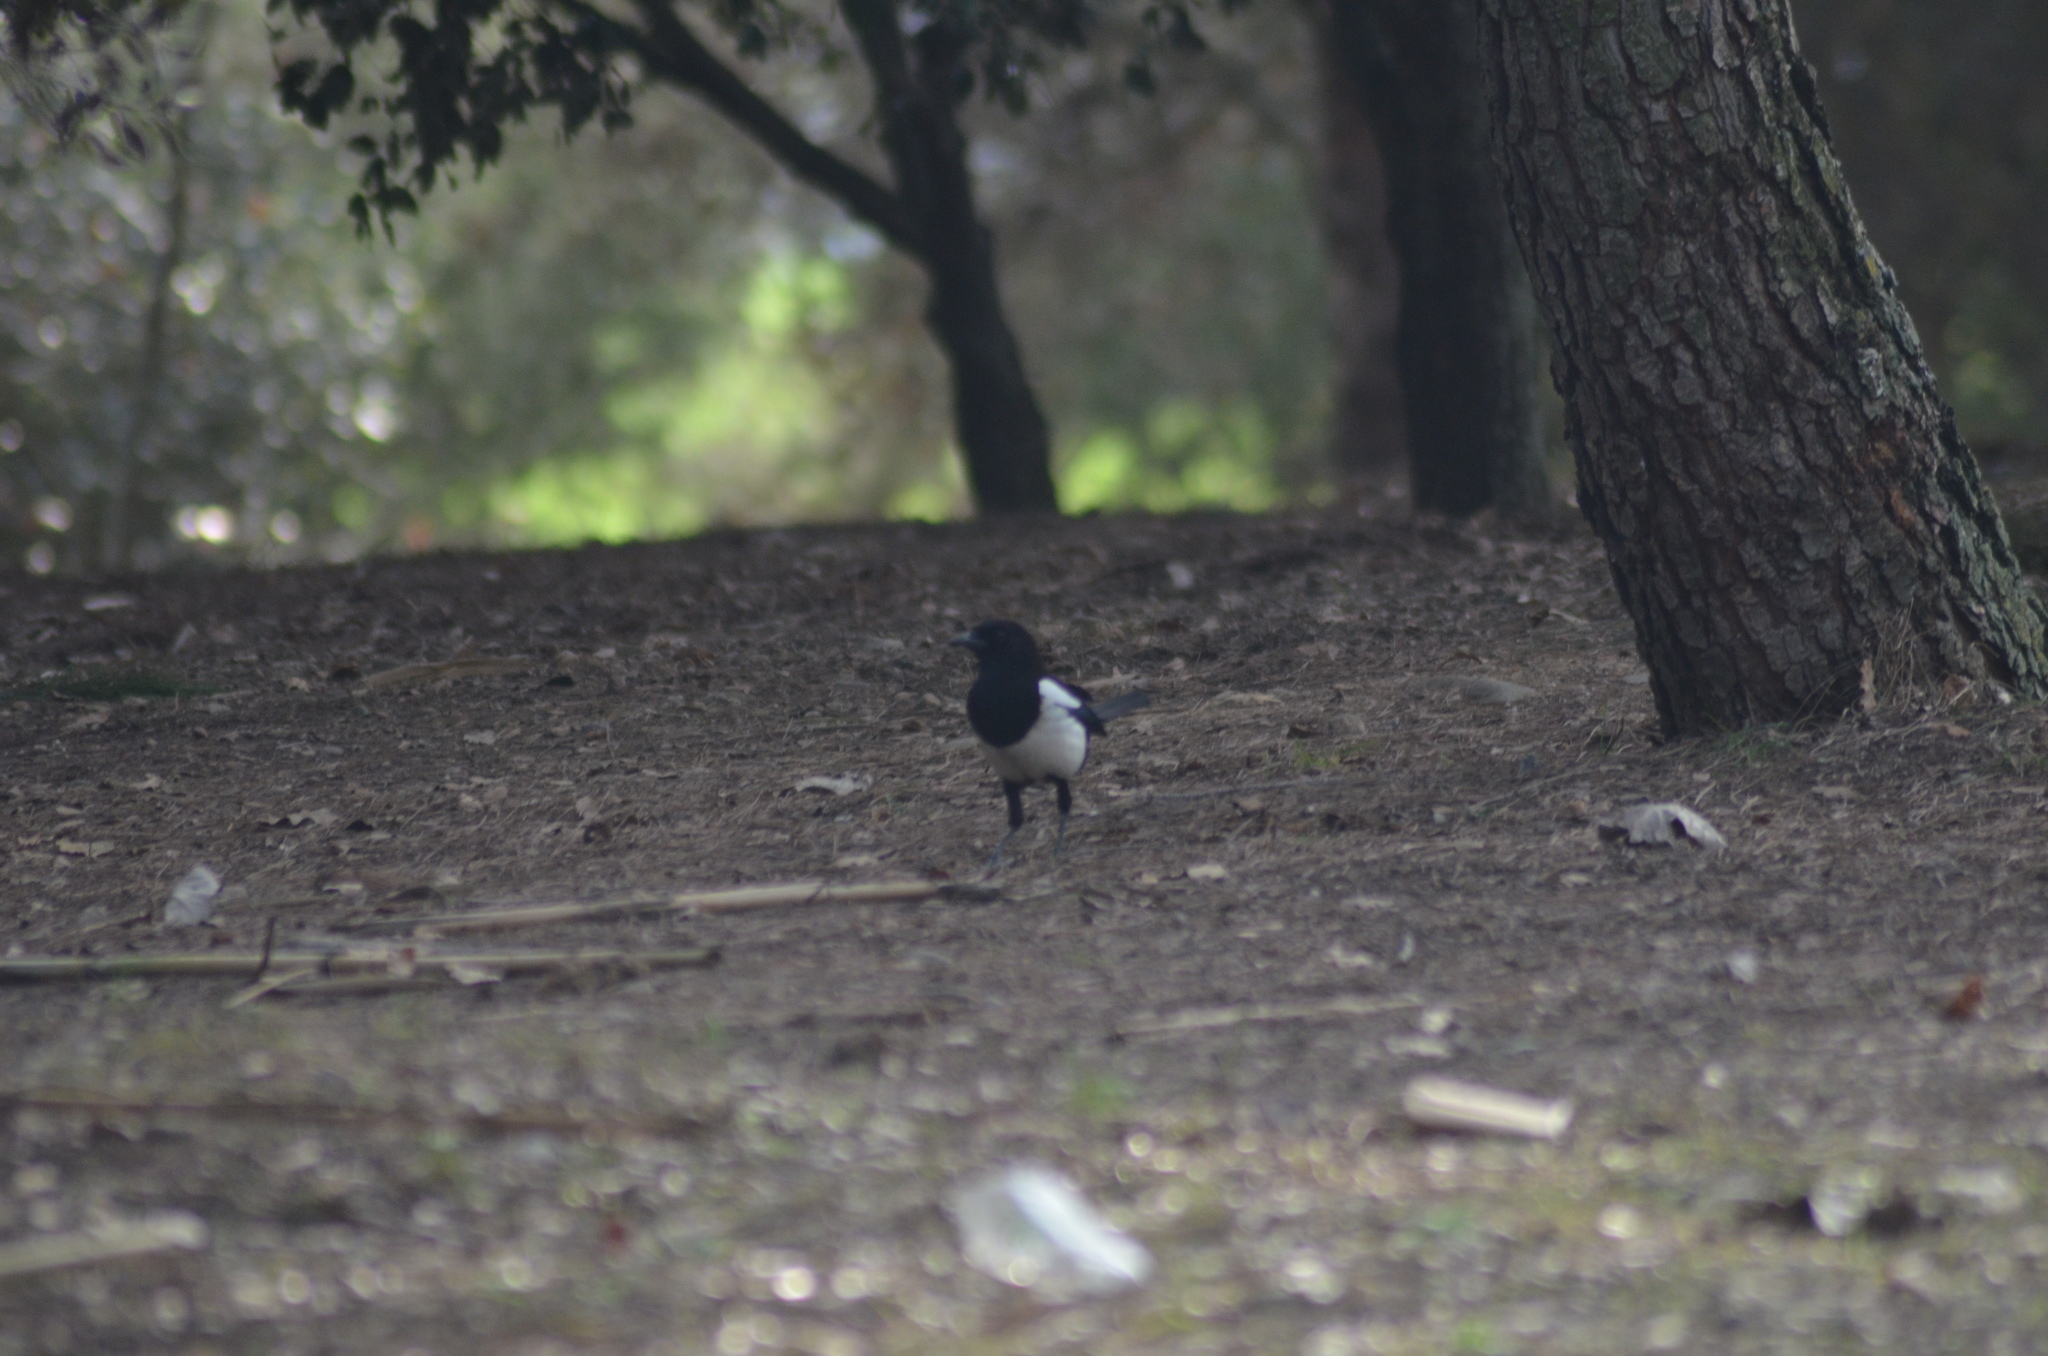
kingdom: Animalia
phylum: Chordata
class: Aves
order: Passeriformes
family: Corvidae
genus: Pica
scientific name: Pica pica
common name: Eurasian magpie
